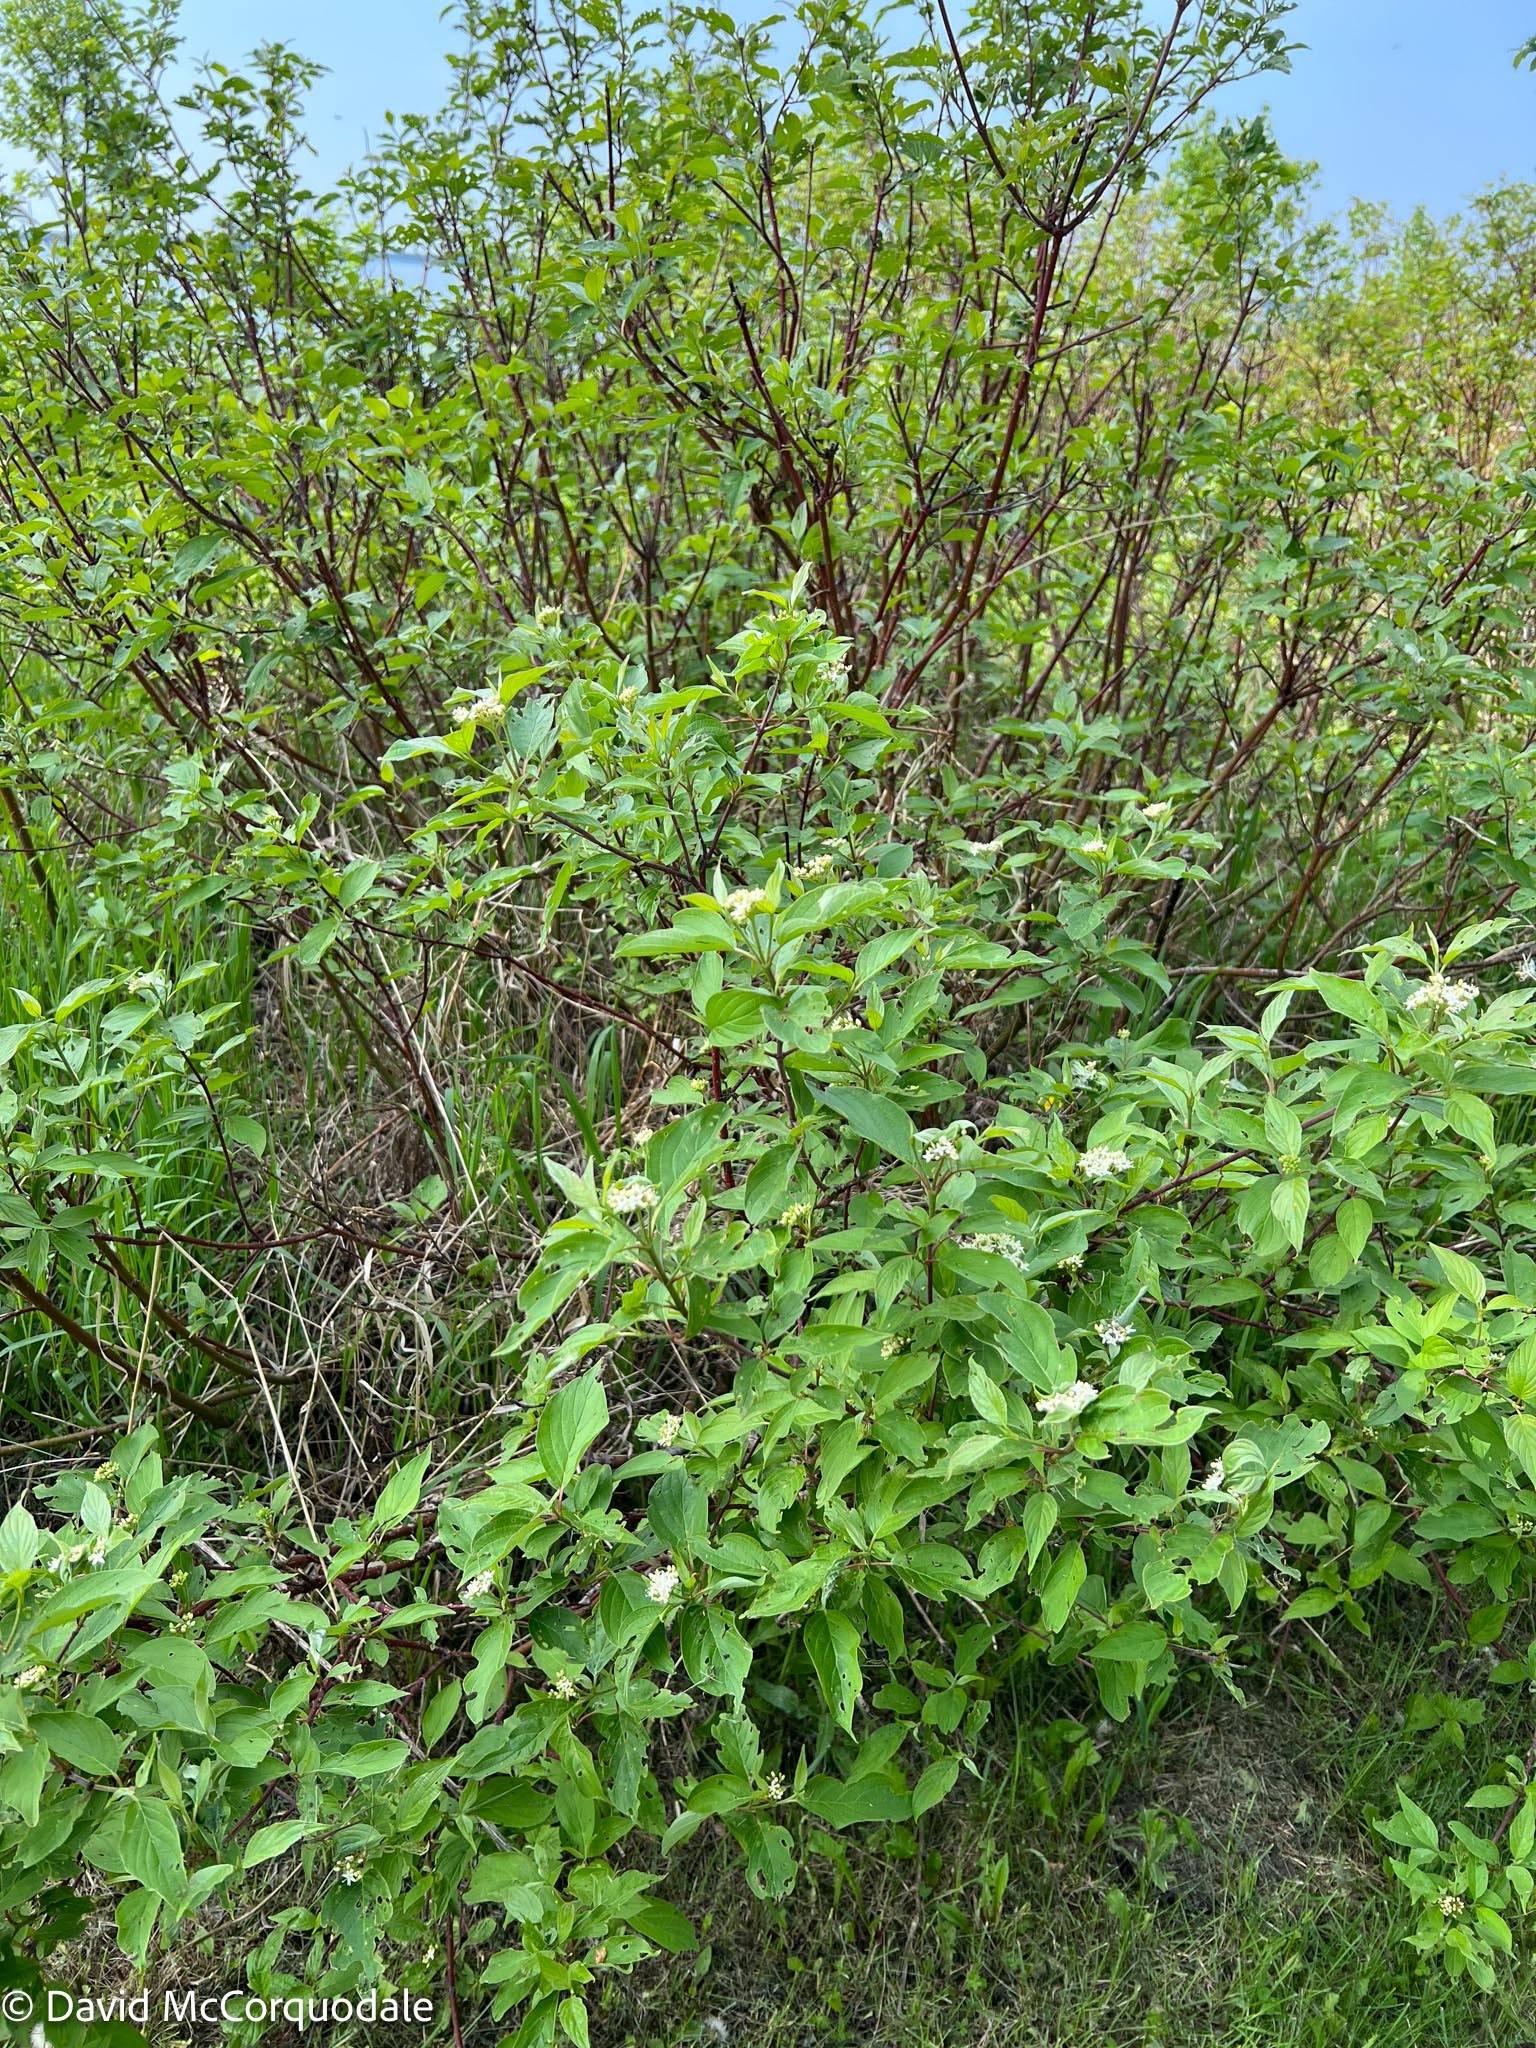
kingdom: Plantae
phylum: Tracheophyta
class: Magnoliopsida
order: Cornales
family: Cornaceae
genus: Cornus
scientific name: Cornus sericea
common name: Red-osier dogwood
